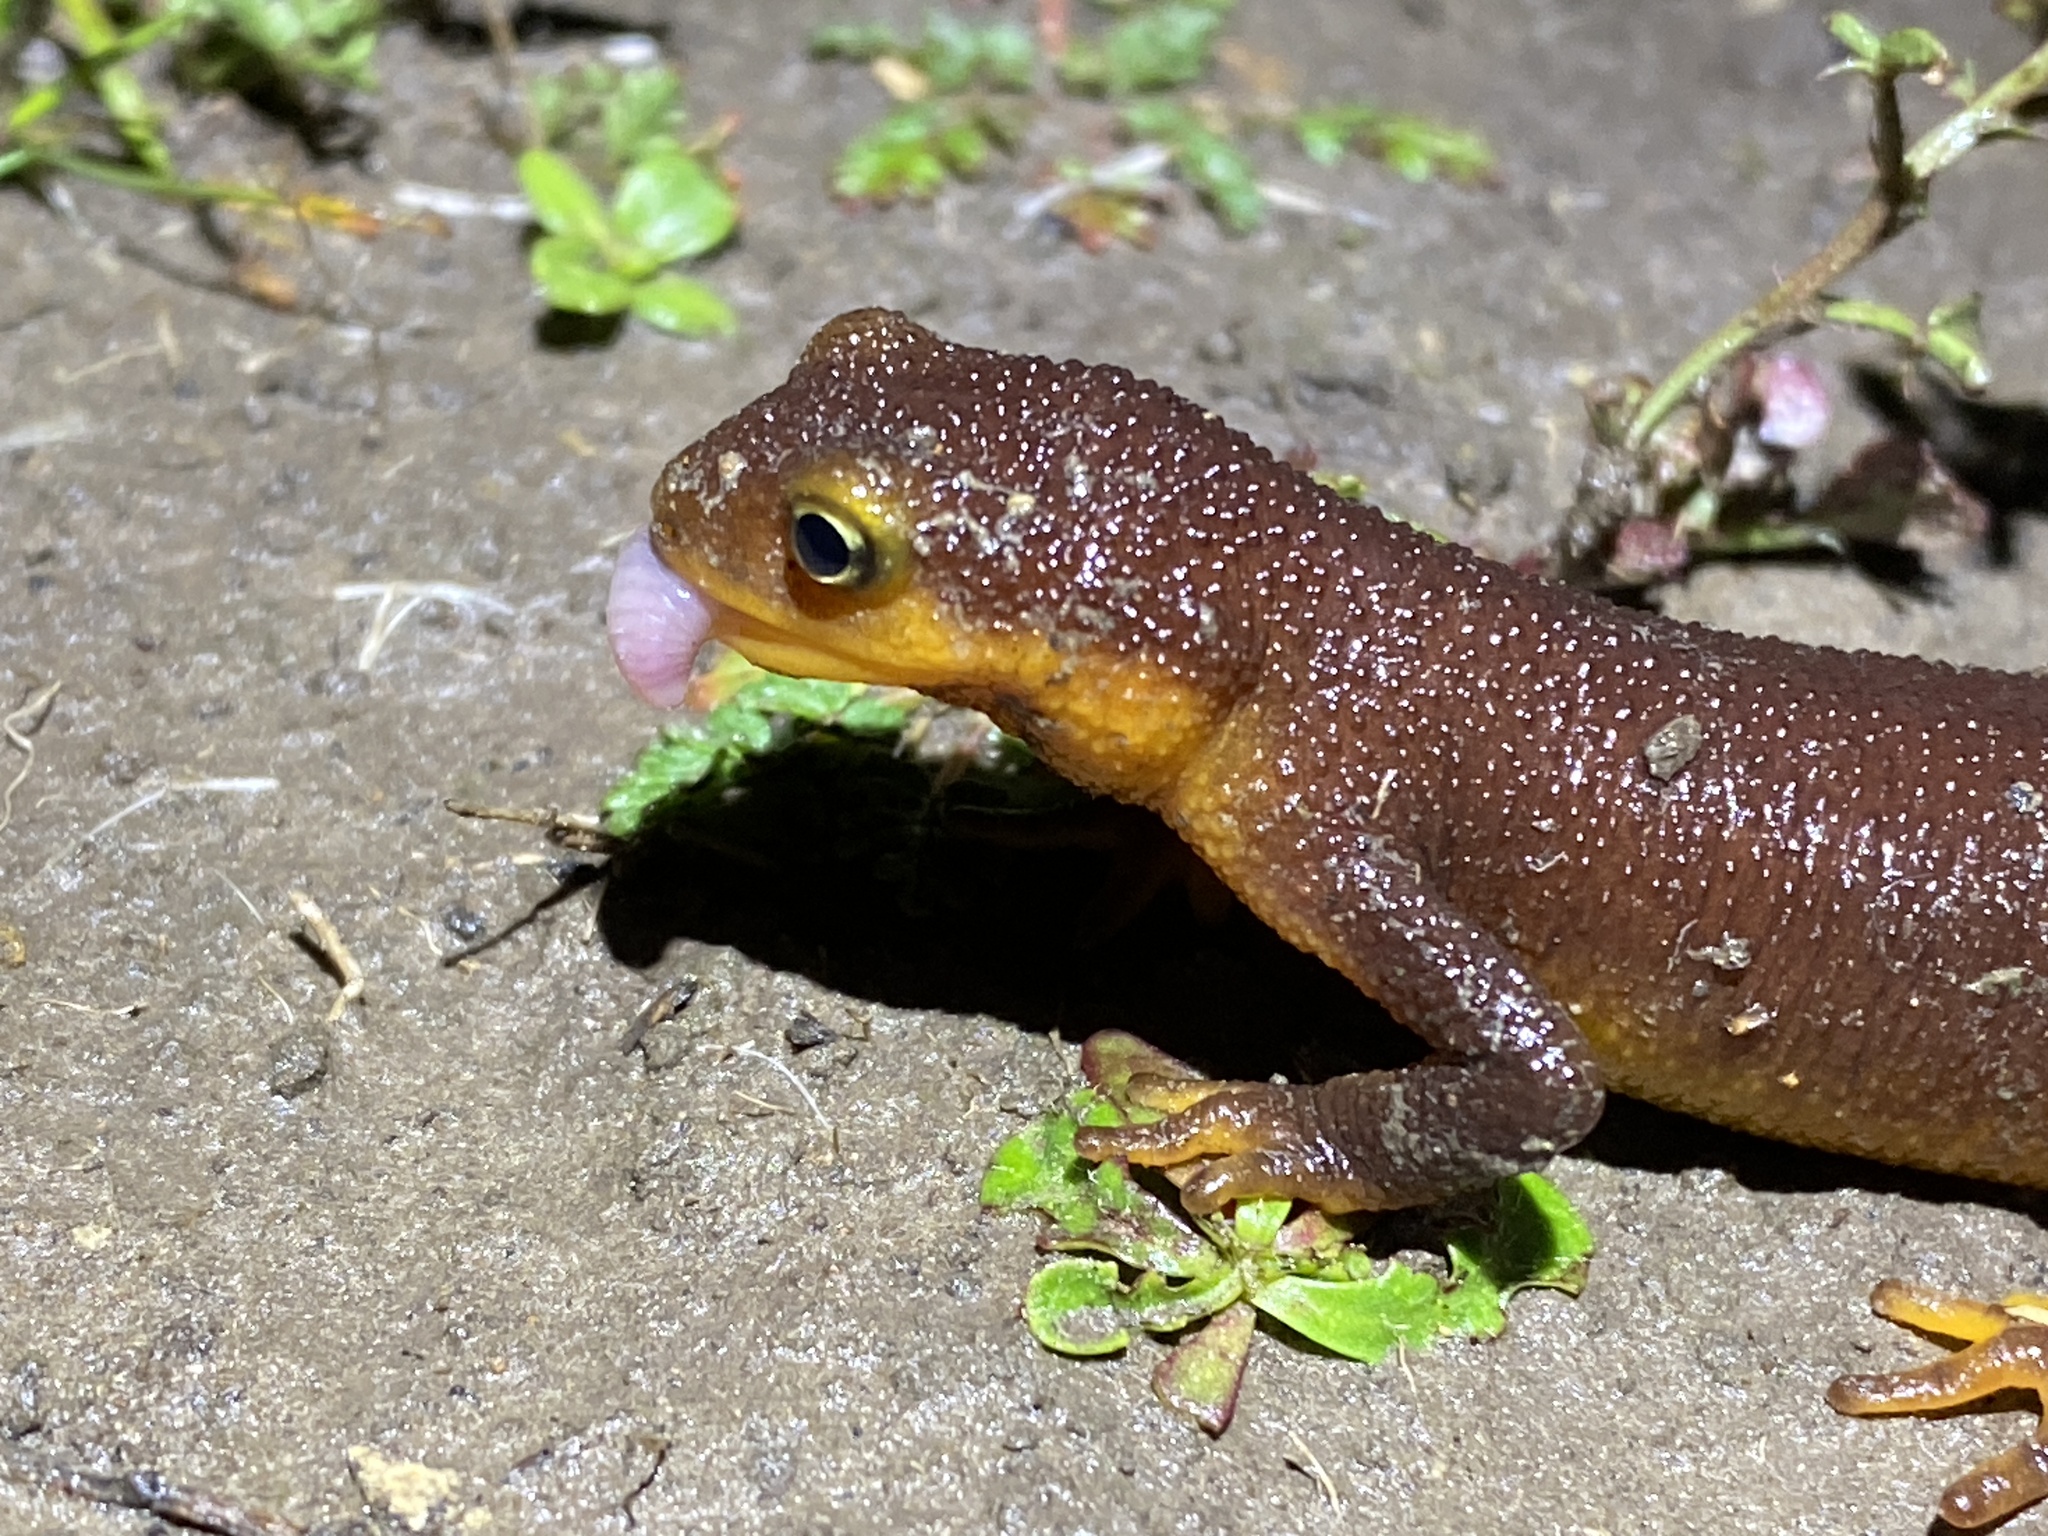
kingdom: Animalia
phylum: Chordata
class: Amphibia
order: Caudata
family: Salamandridae
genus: Taricha
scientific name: Taricha torosa
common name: California newt
